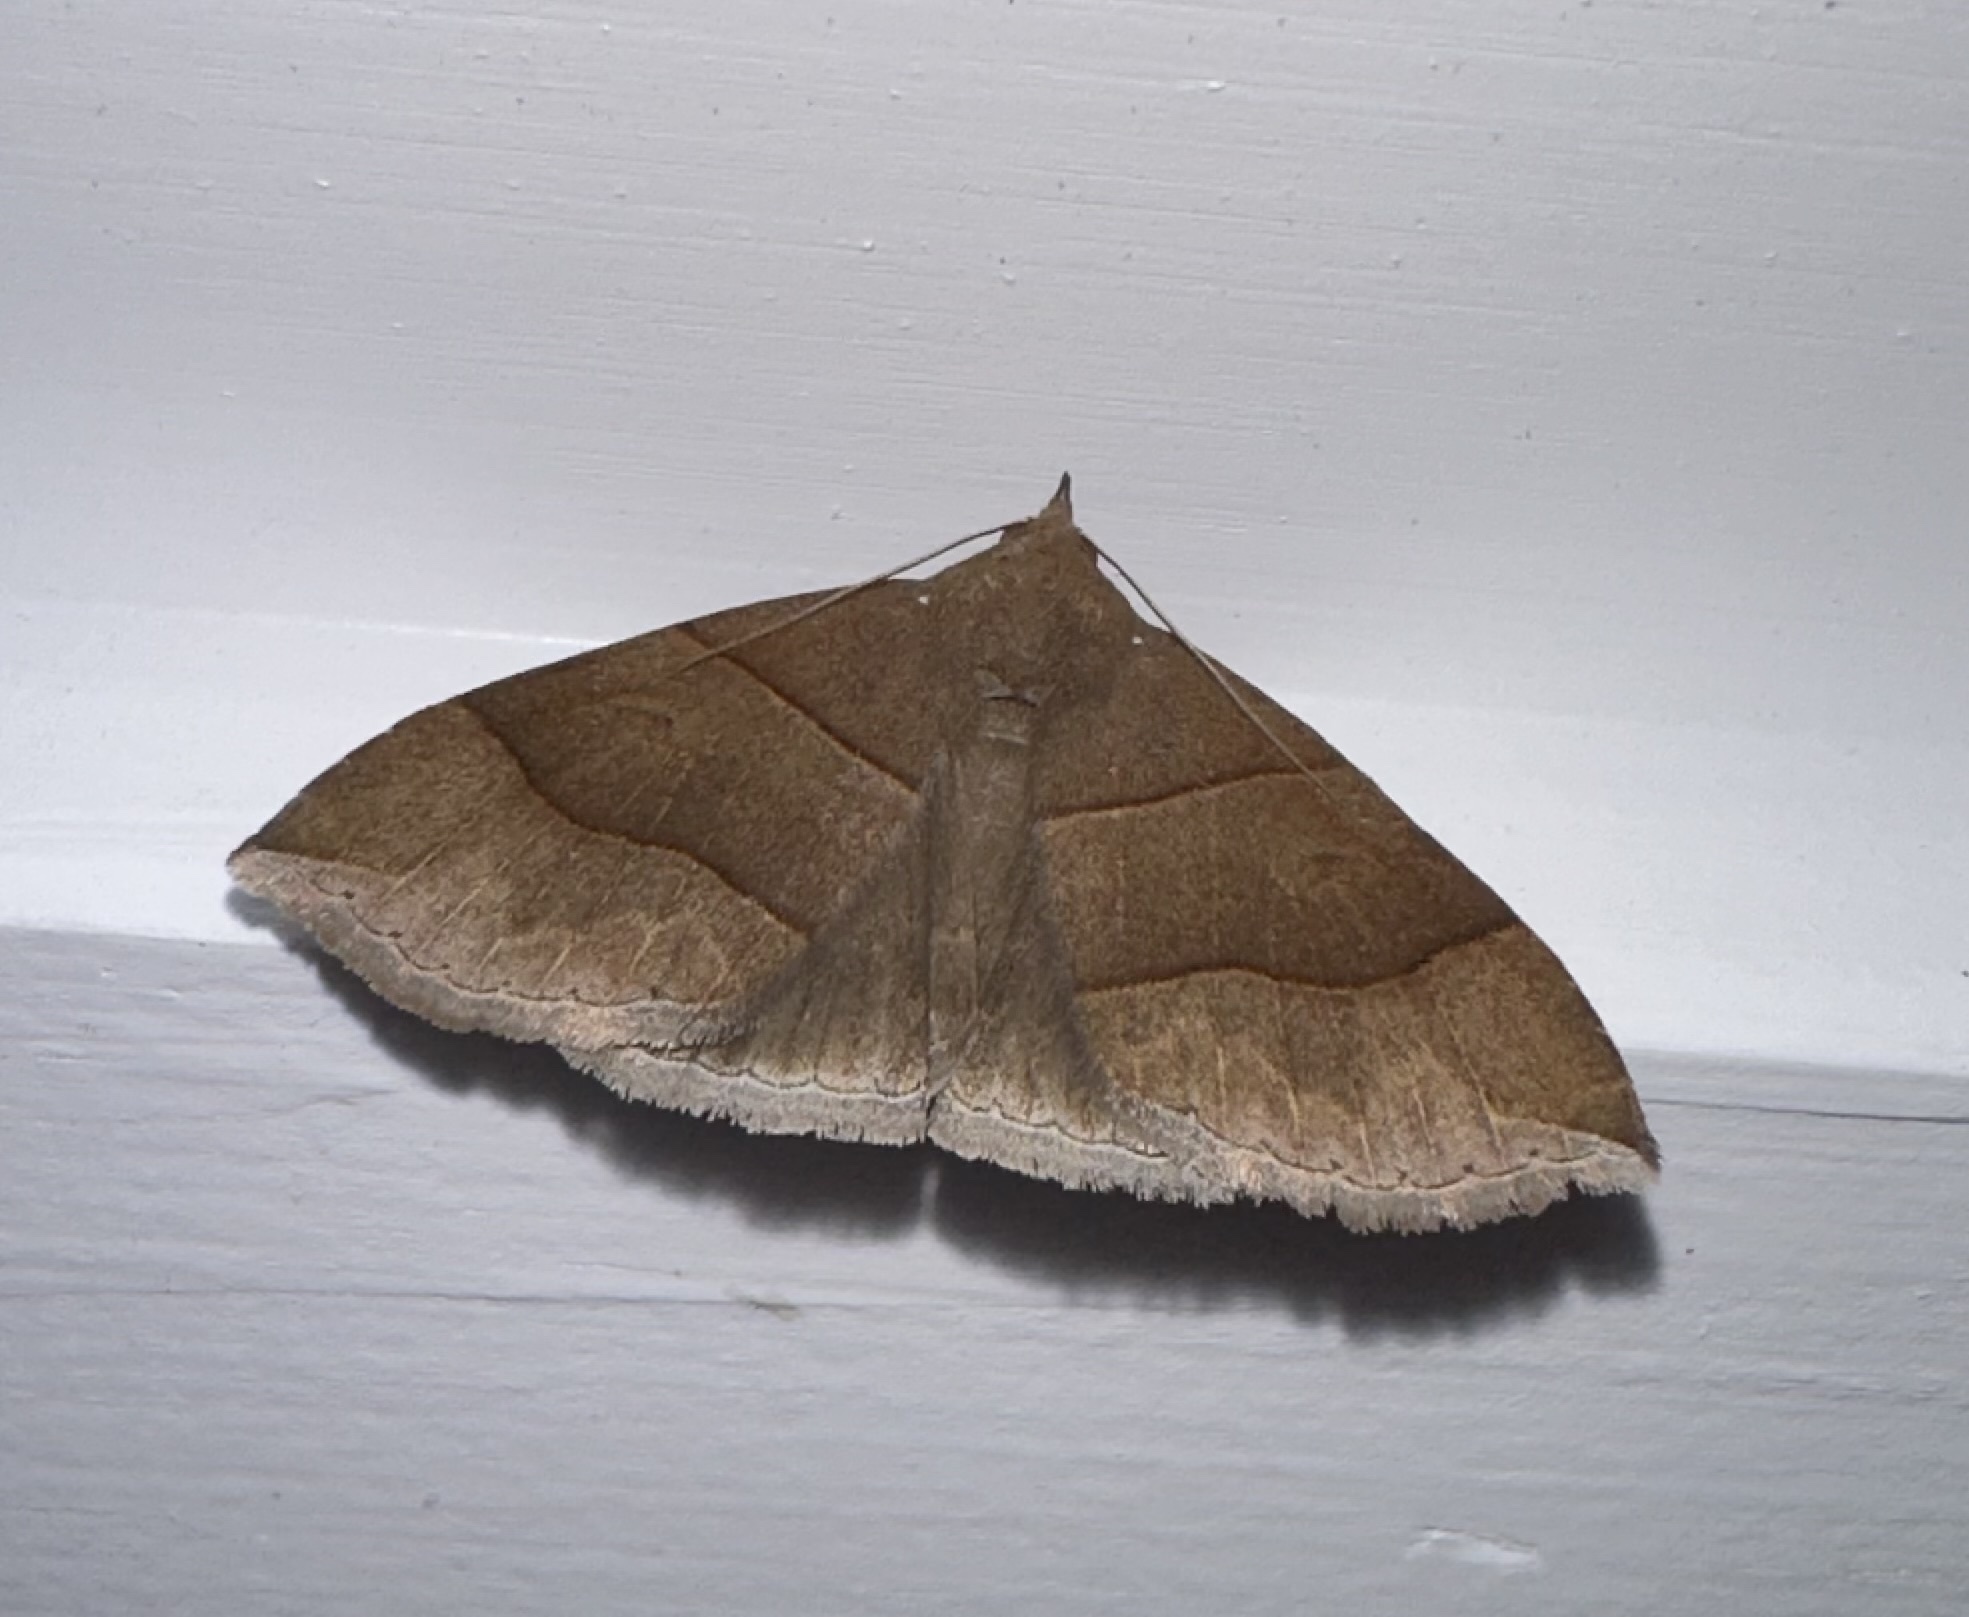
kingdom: Animalia
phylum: Arthropoda
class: Insecta
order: Lepidoptera
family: Erebidae
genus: Parallelia
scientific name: Parallelia bistriaris
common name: Maple looper moth
